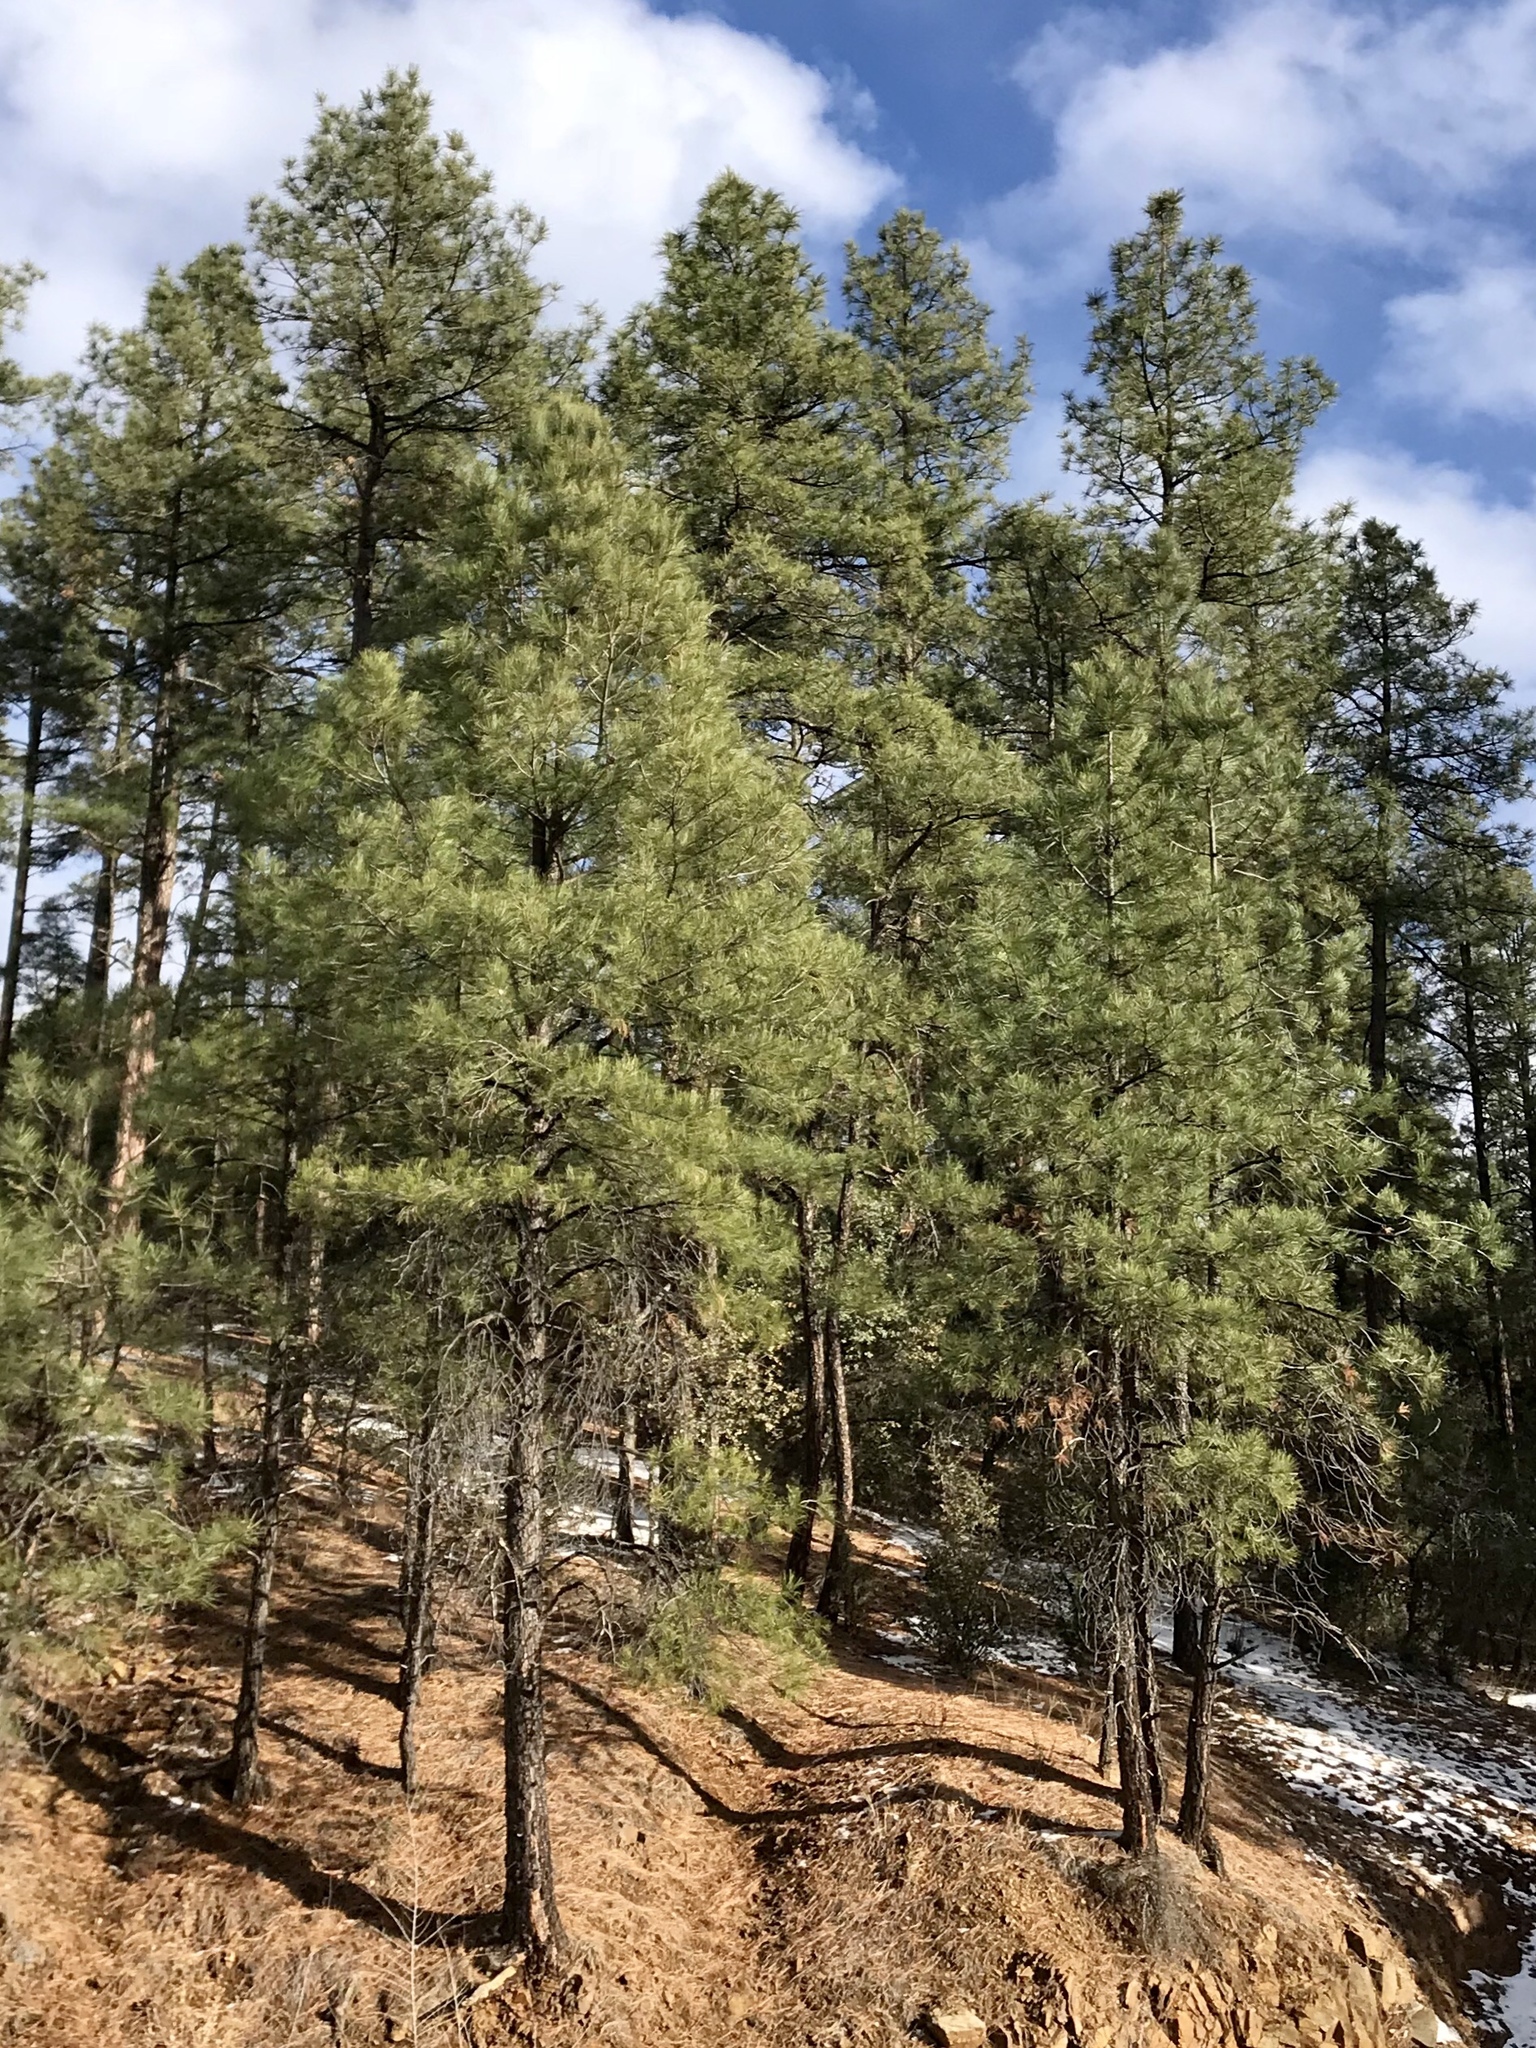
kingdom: Plantae
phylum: Tracheophyta
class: Pinopsida
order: Pinales
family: Pinaceae
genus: Pinus
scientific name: Pinus ponderosa
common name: Western yellow-pine
